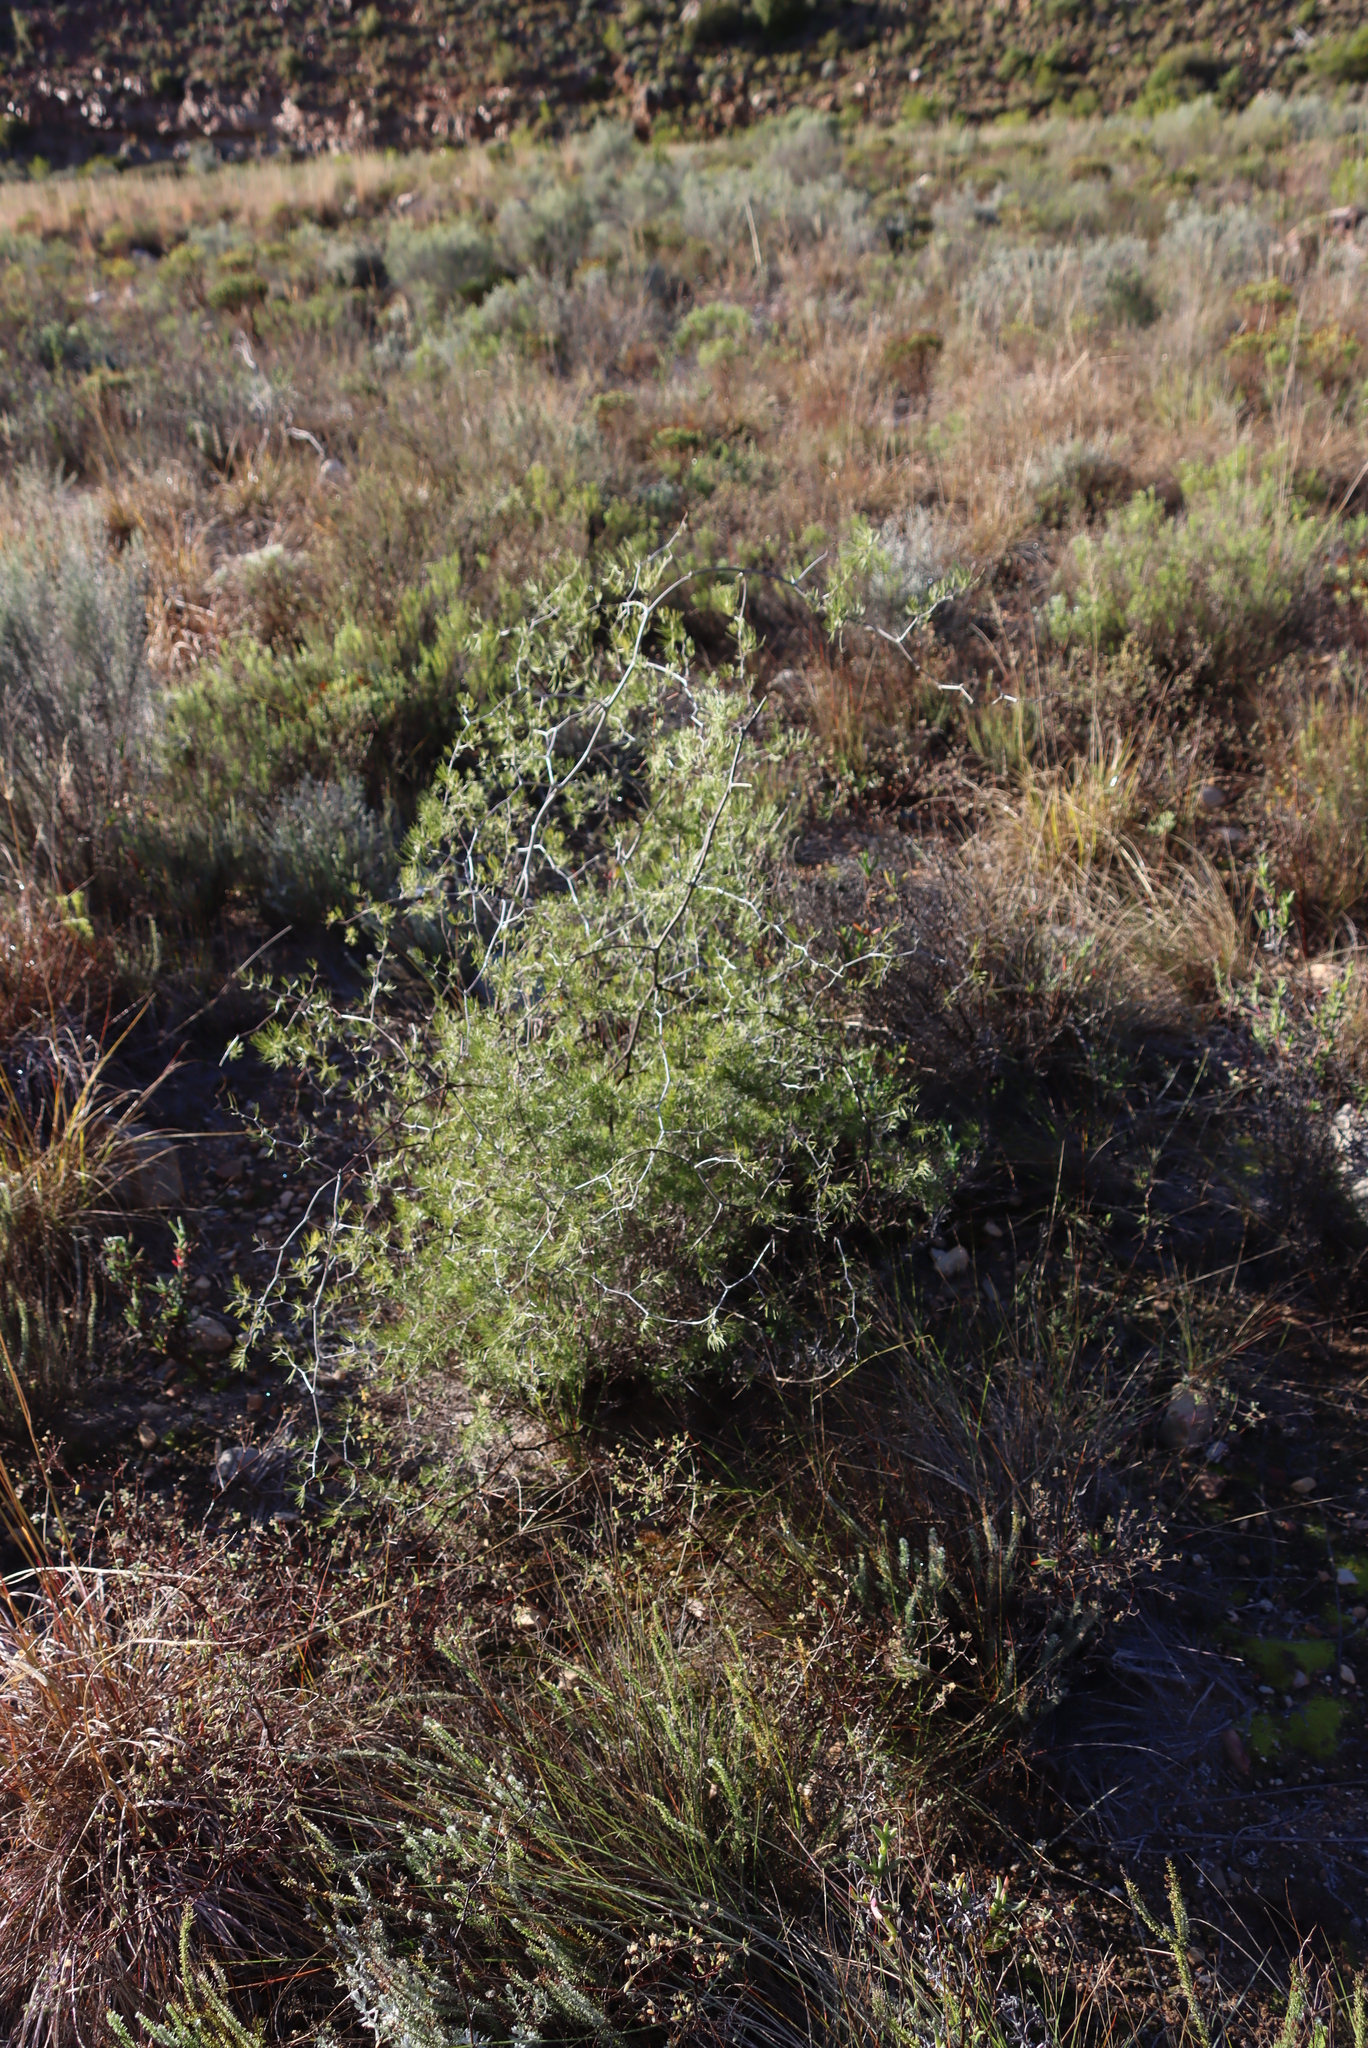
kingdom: Plantae
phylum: Tracheophyta
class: Liliopsida
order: Asparagales
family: Asparagaceae
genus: Asparagus
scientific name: Asparagus retrofractus
